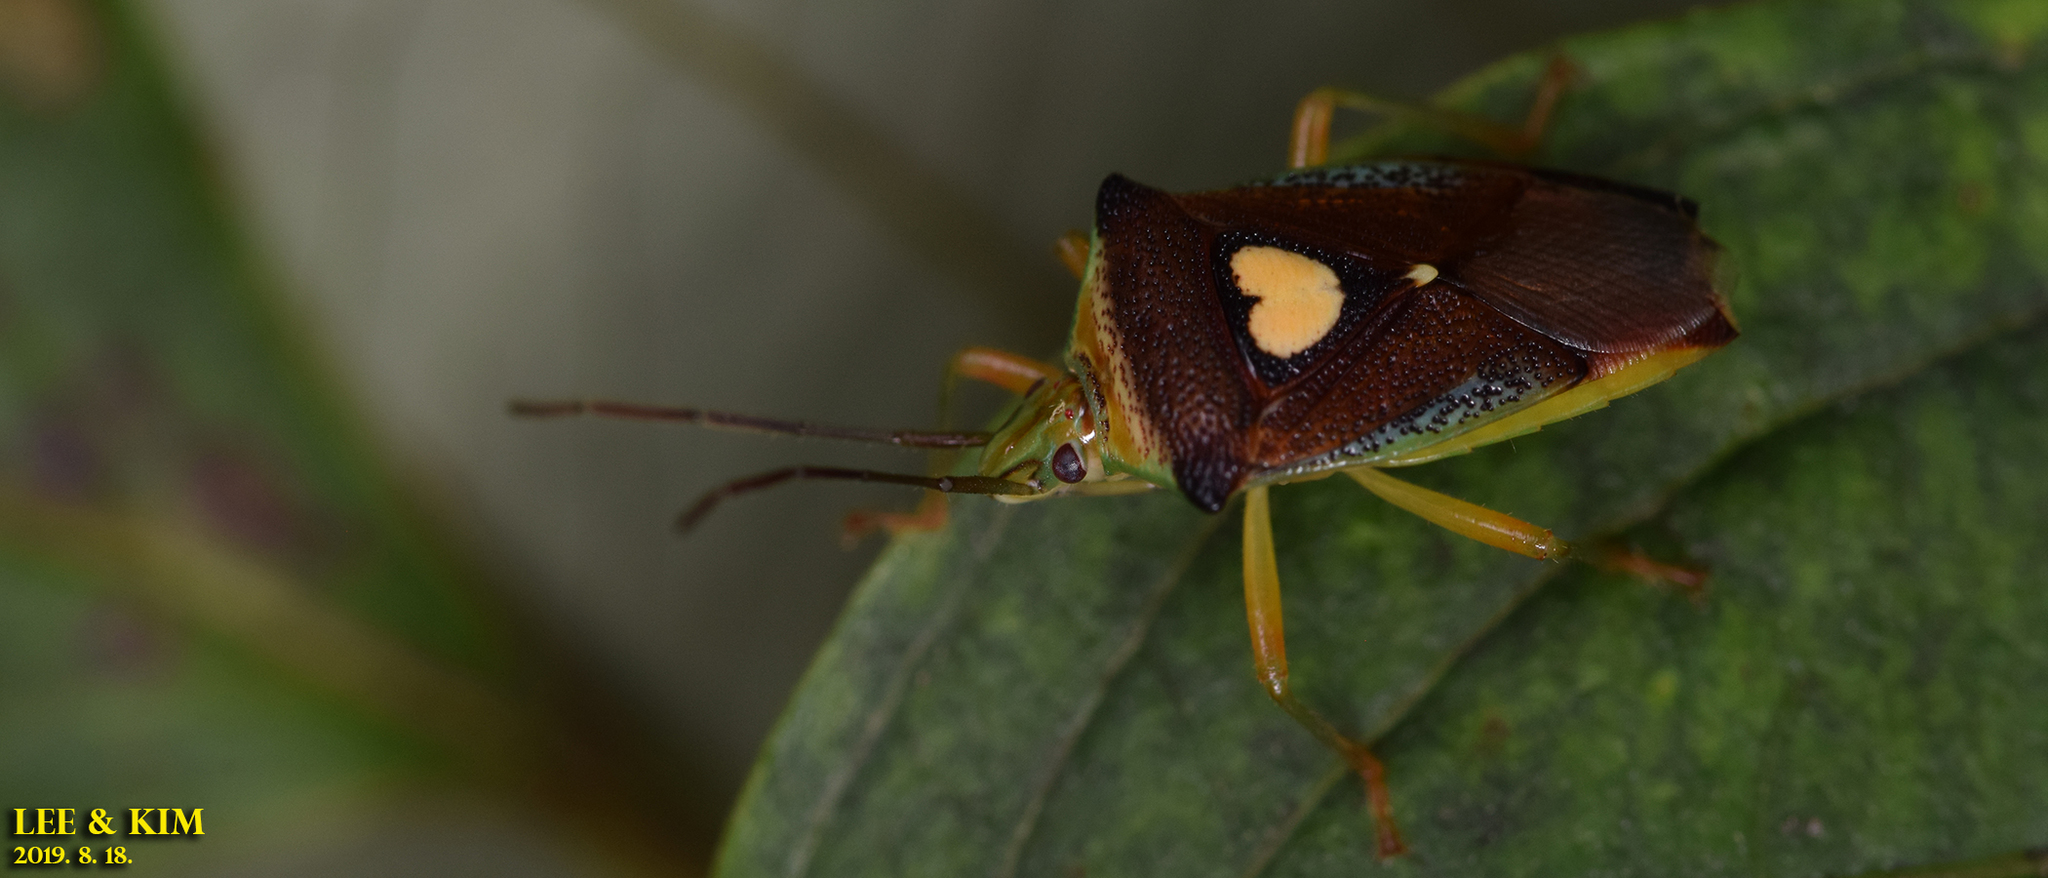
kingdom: Animalia
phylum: Arthropoda
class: Insecta
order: Hemiptera
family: Acanthosomatidae
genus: Sastragala
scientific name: Sastragala esakii
